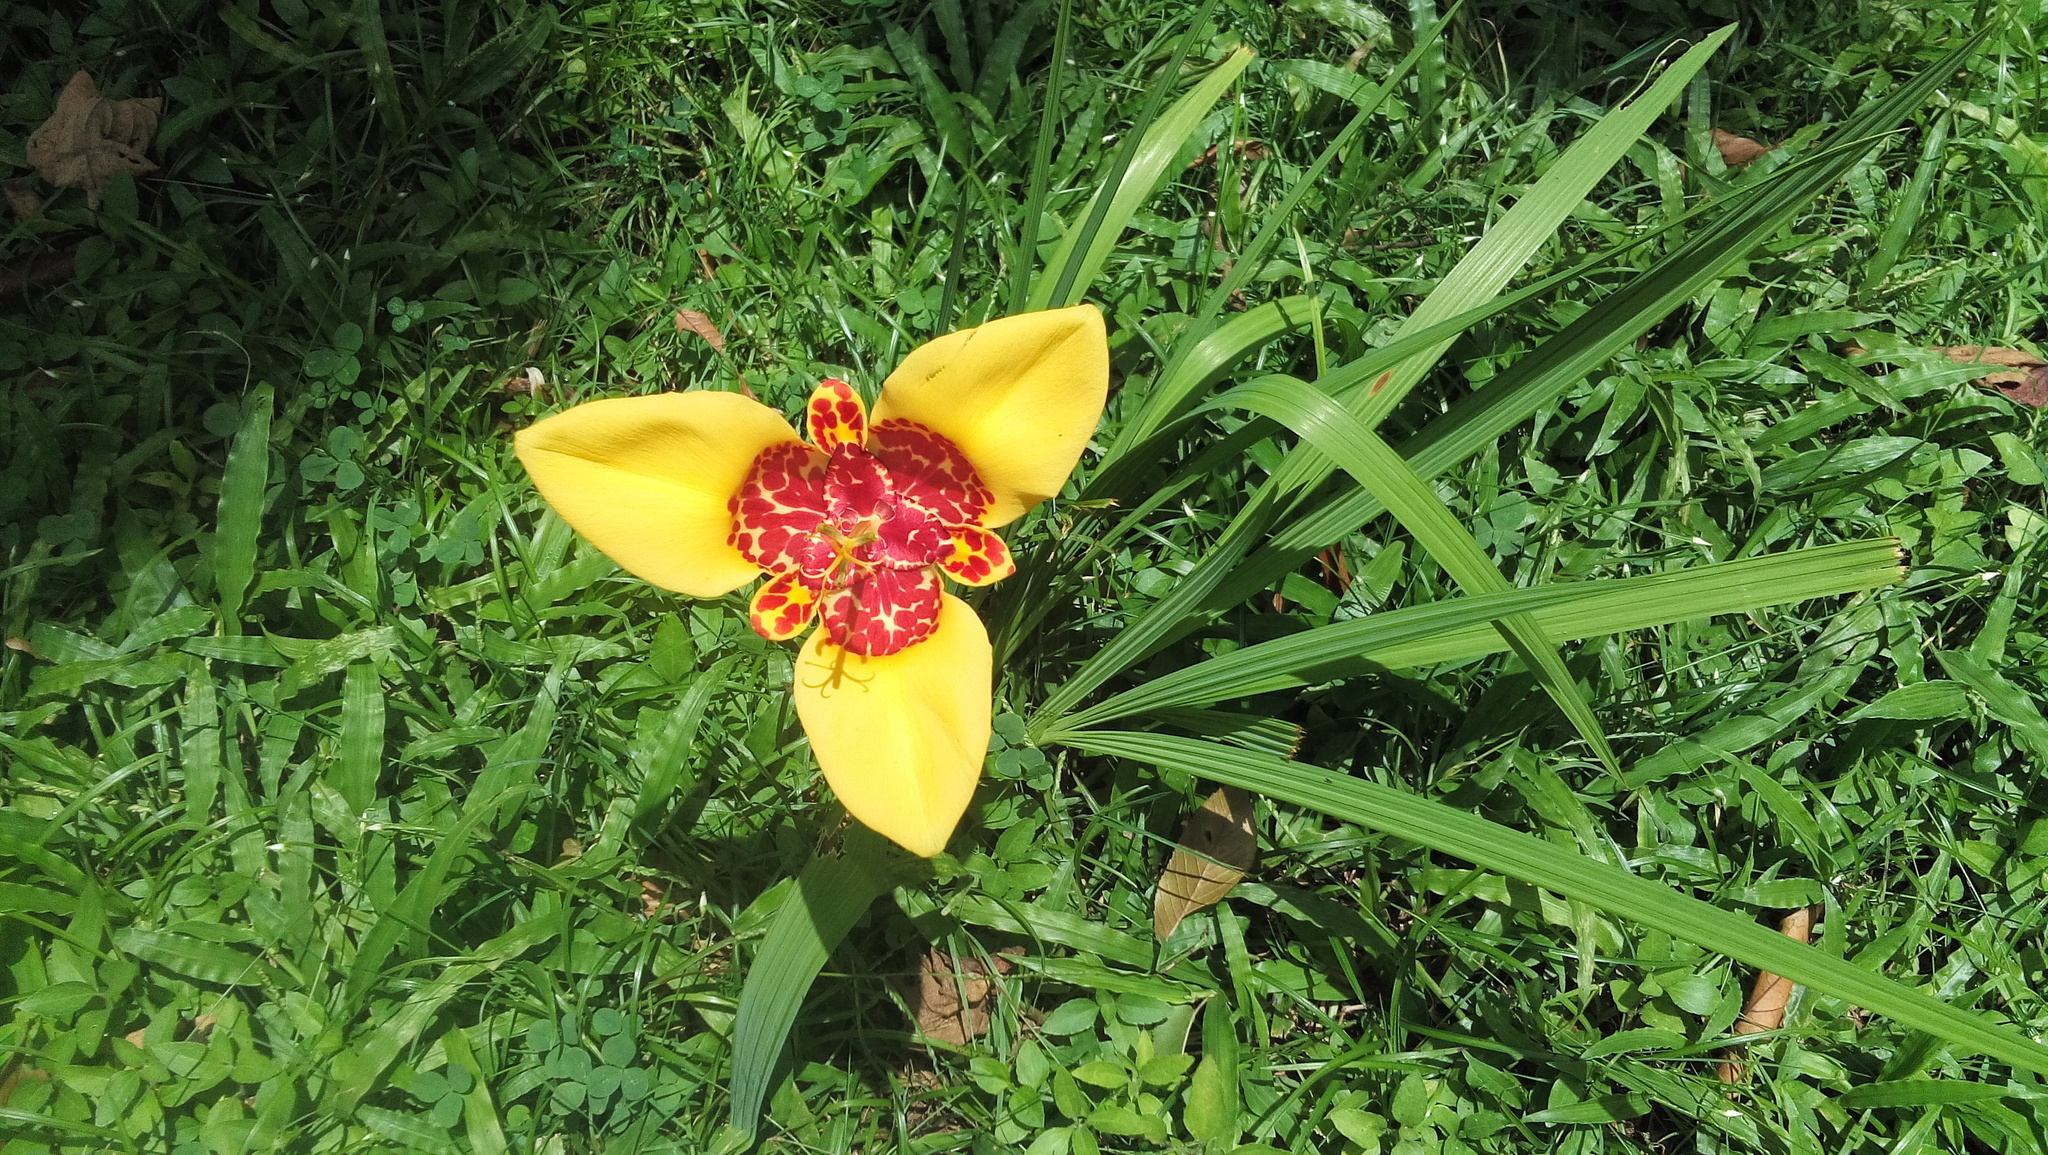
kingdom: Plantae
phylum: Tracheophyta
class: Liliopsida
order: Asparagales
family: Iridaceae
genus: Tigridia
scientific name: Tigridia pavonia
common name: Peacock-flower
